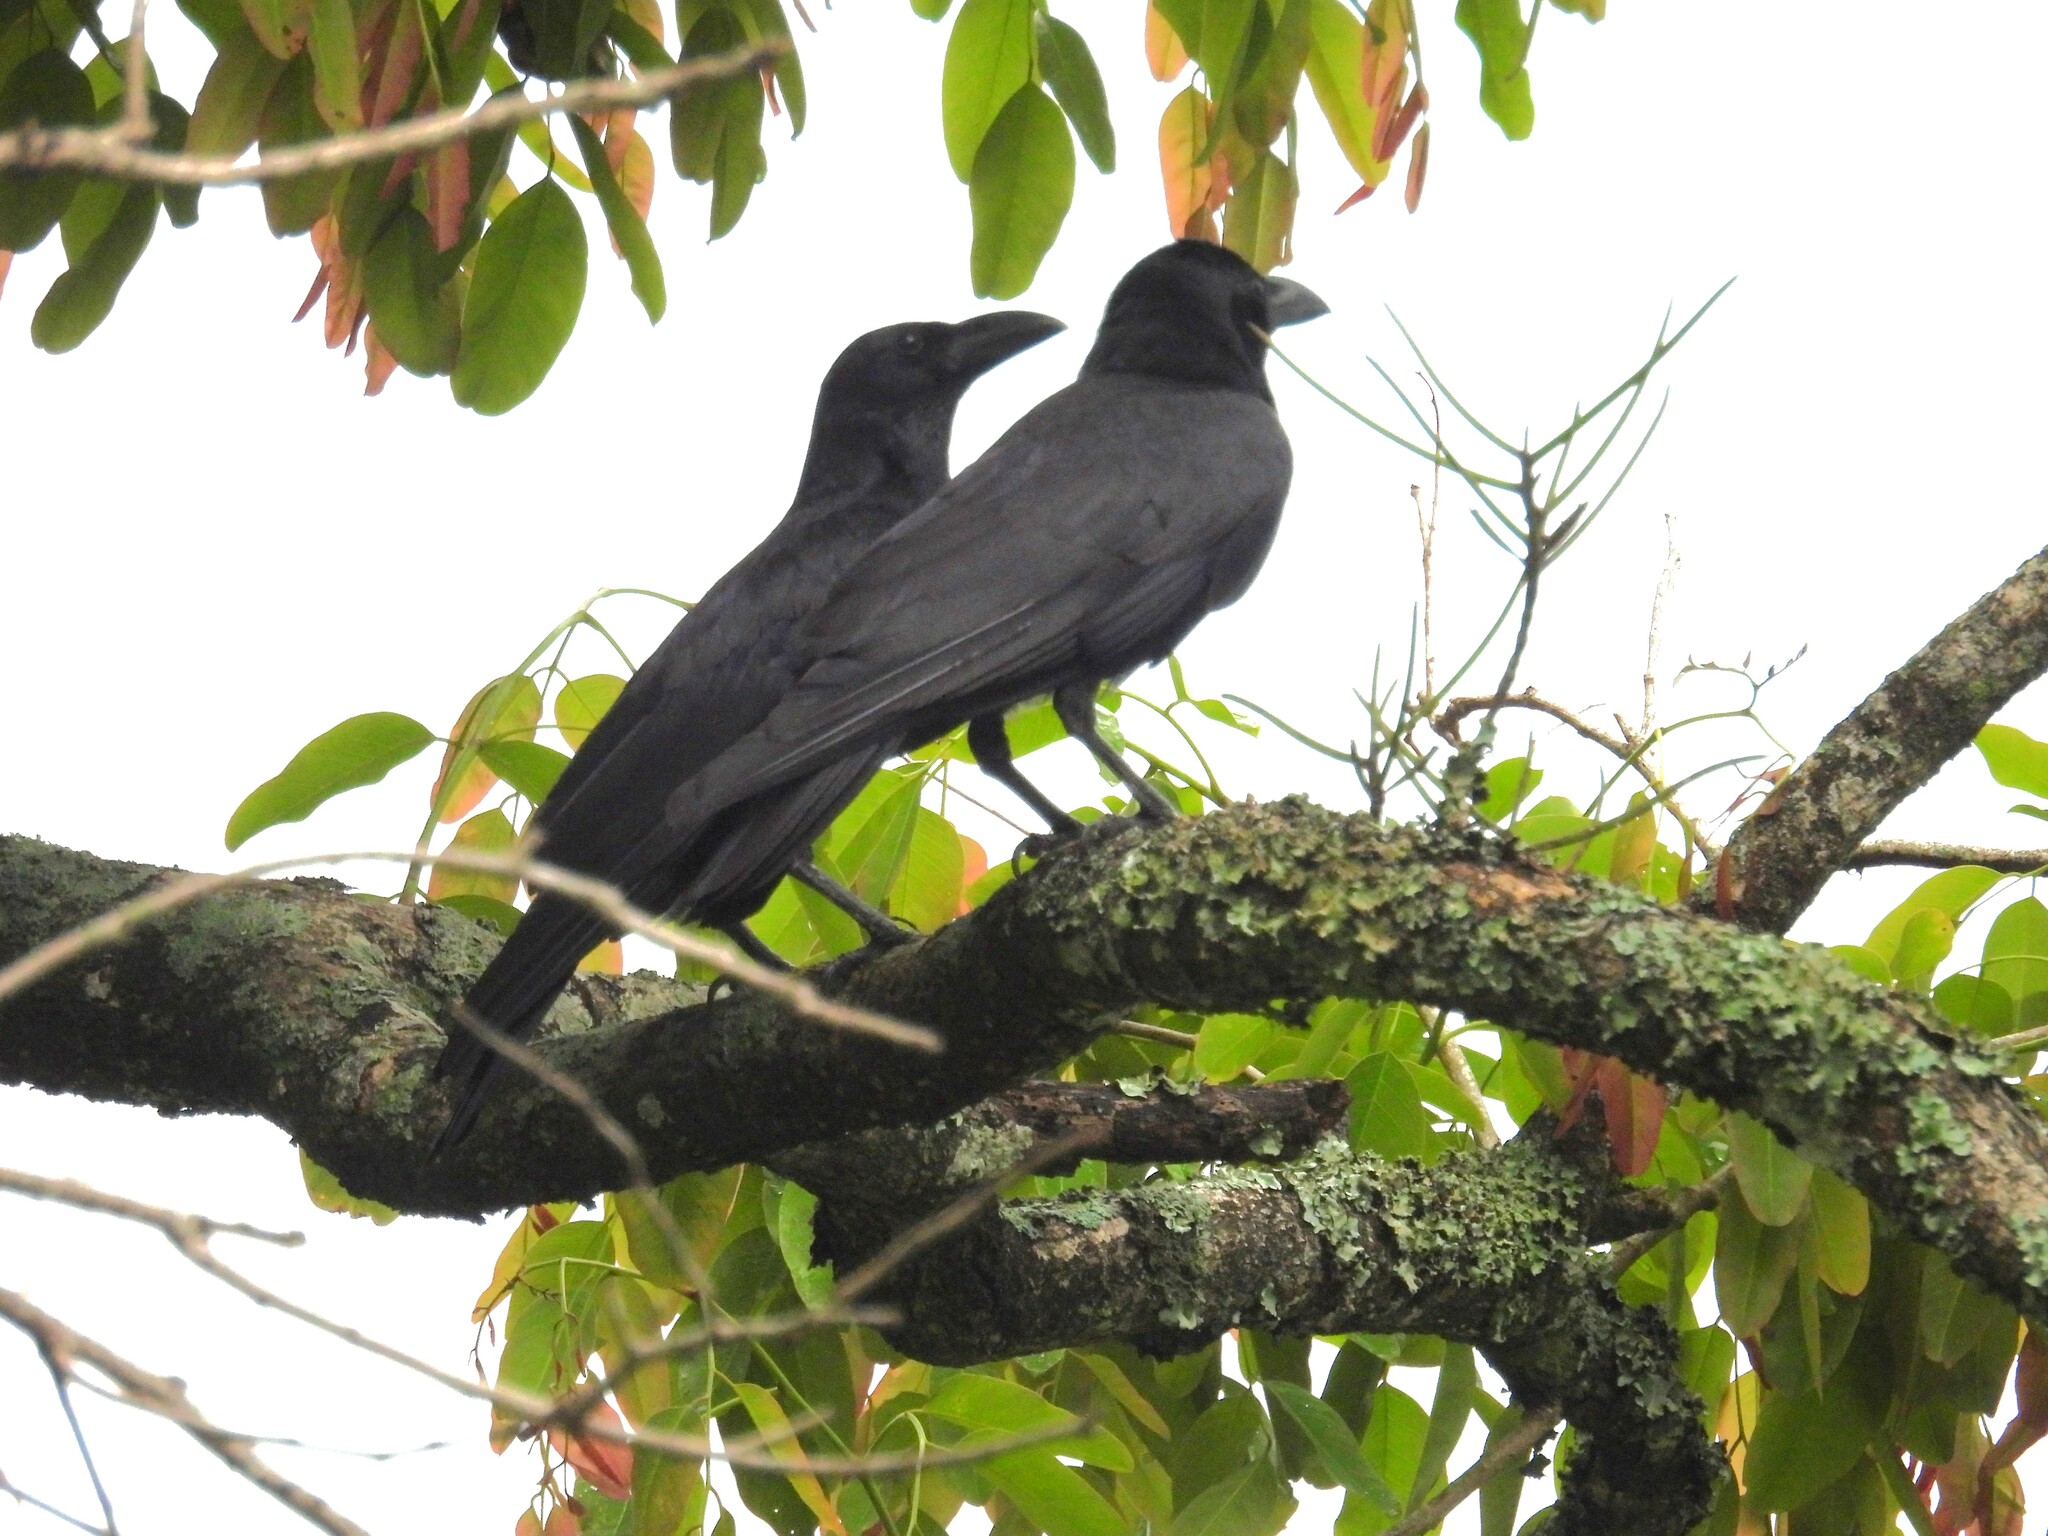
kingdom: Animalia
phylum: Chordata
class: Aves
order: Passeriformes
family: Corvidae
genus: Corvus
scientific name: Corvus macrorhynchos
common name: Large-billed crow
